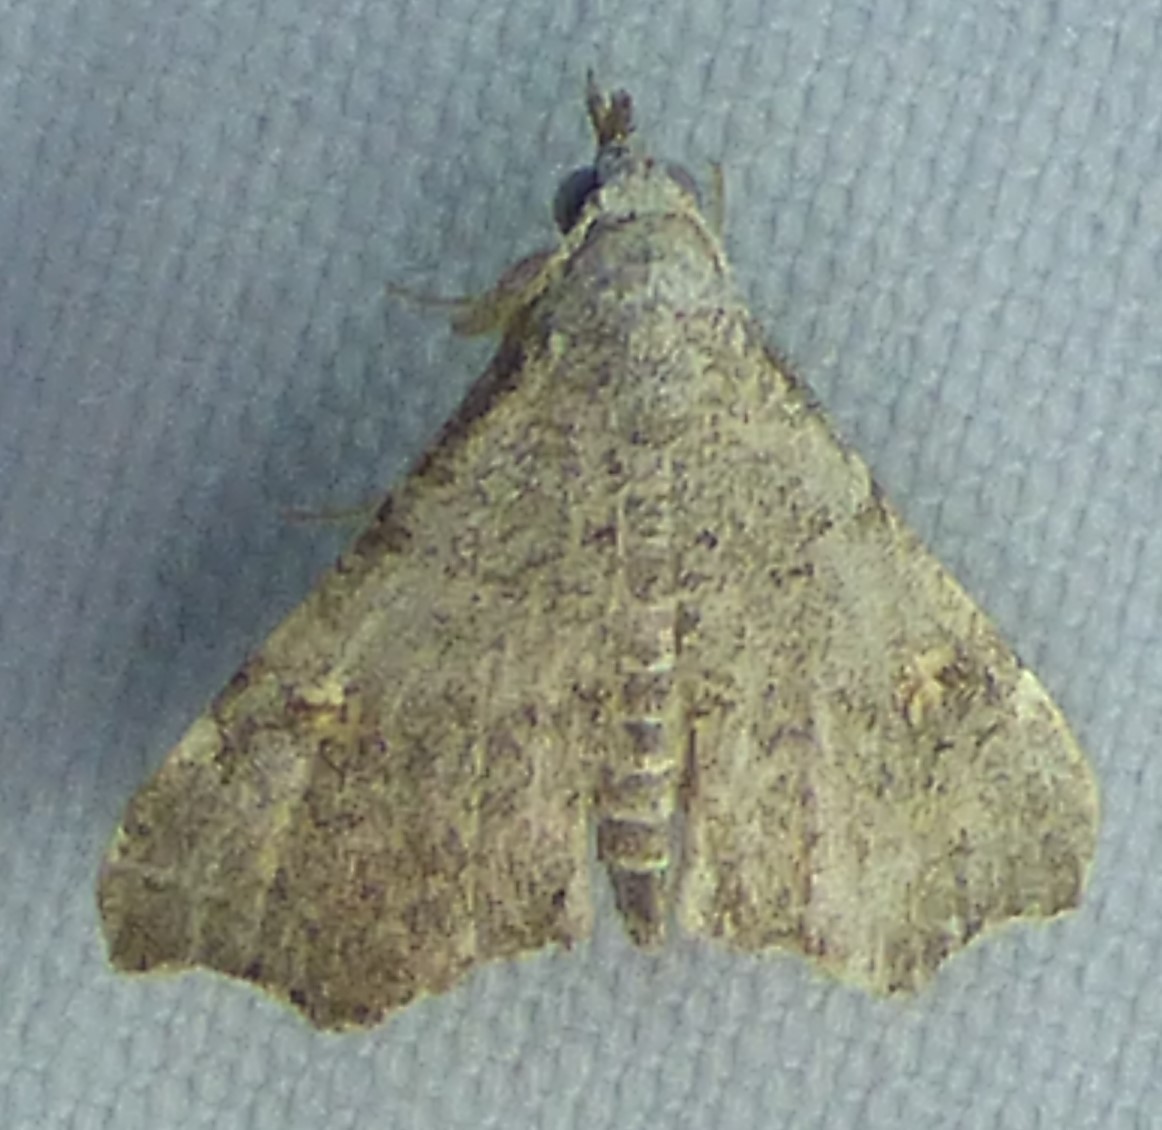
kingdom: Animalia
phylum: Arthropoda
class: Insecta
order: Lepidoptera
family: Erebidae
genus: Redectis
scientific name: Redectis pygmaea
